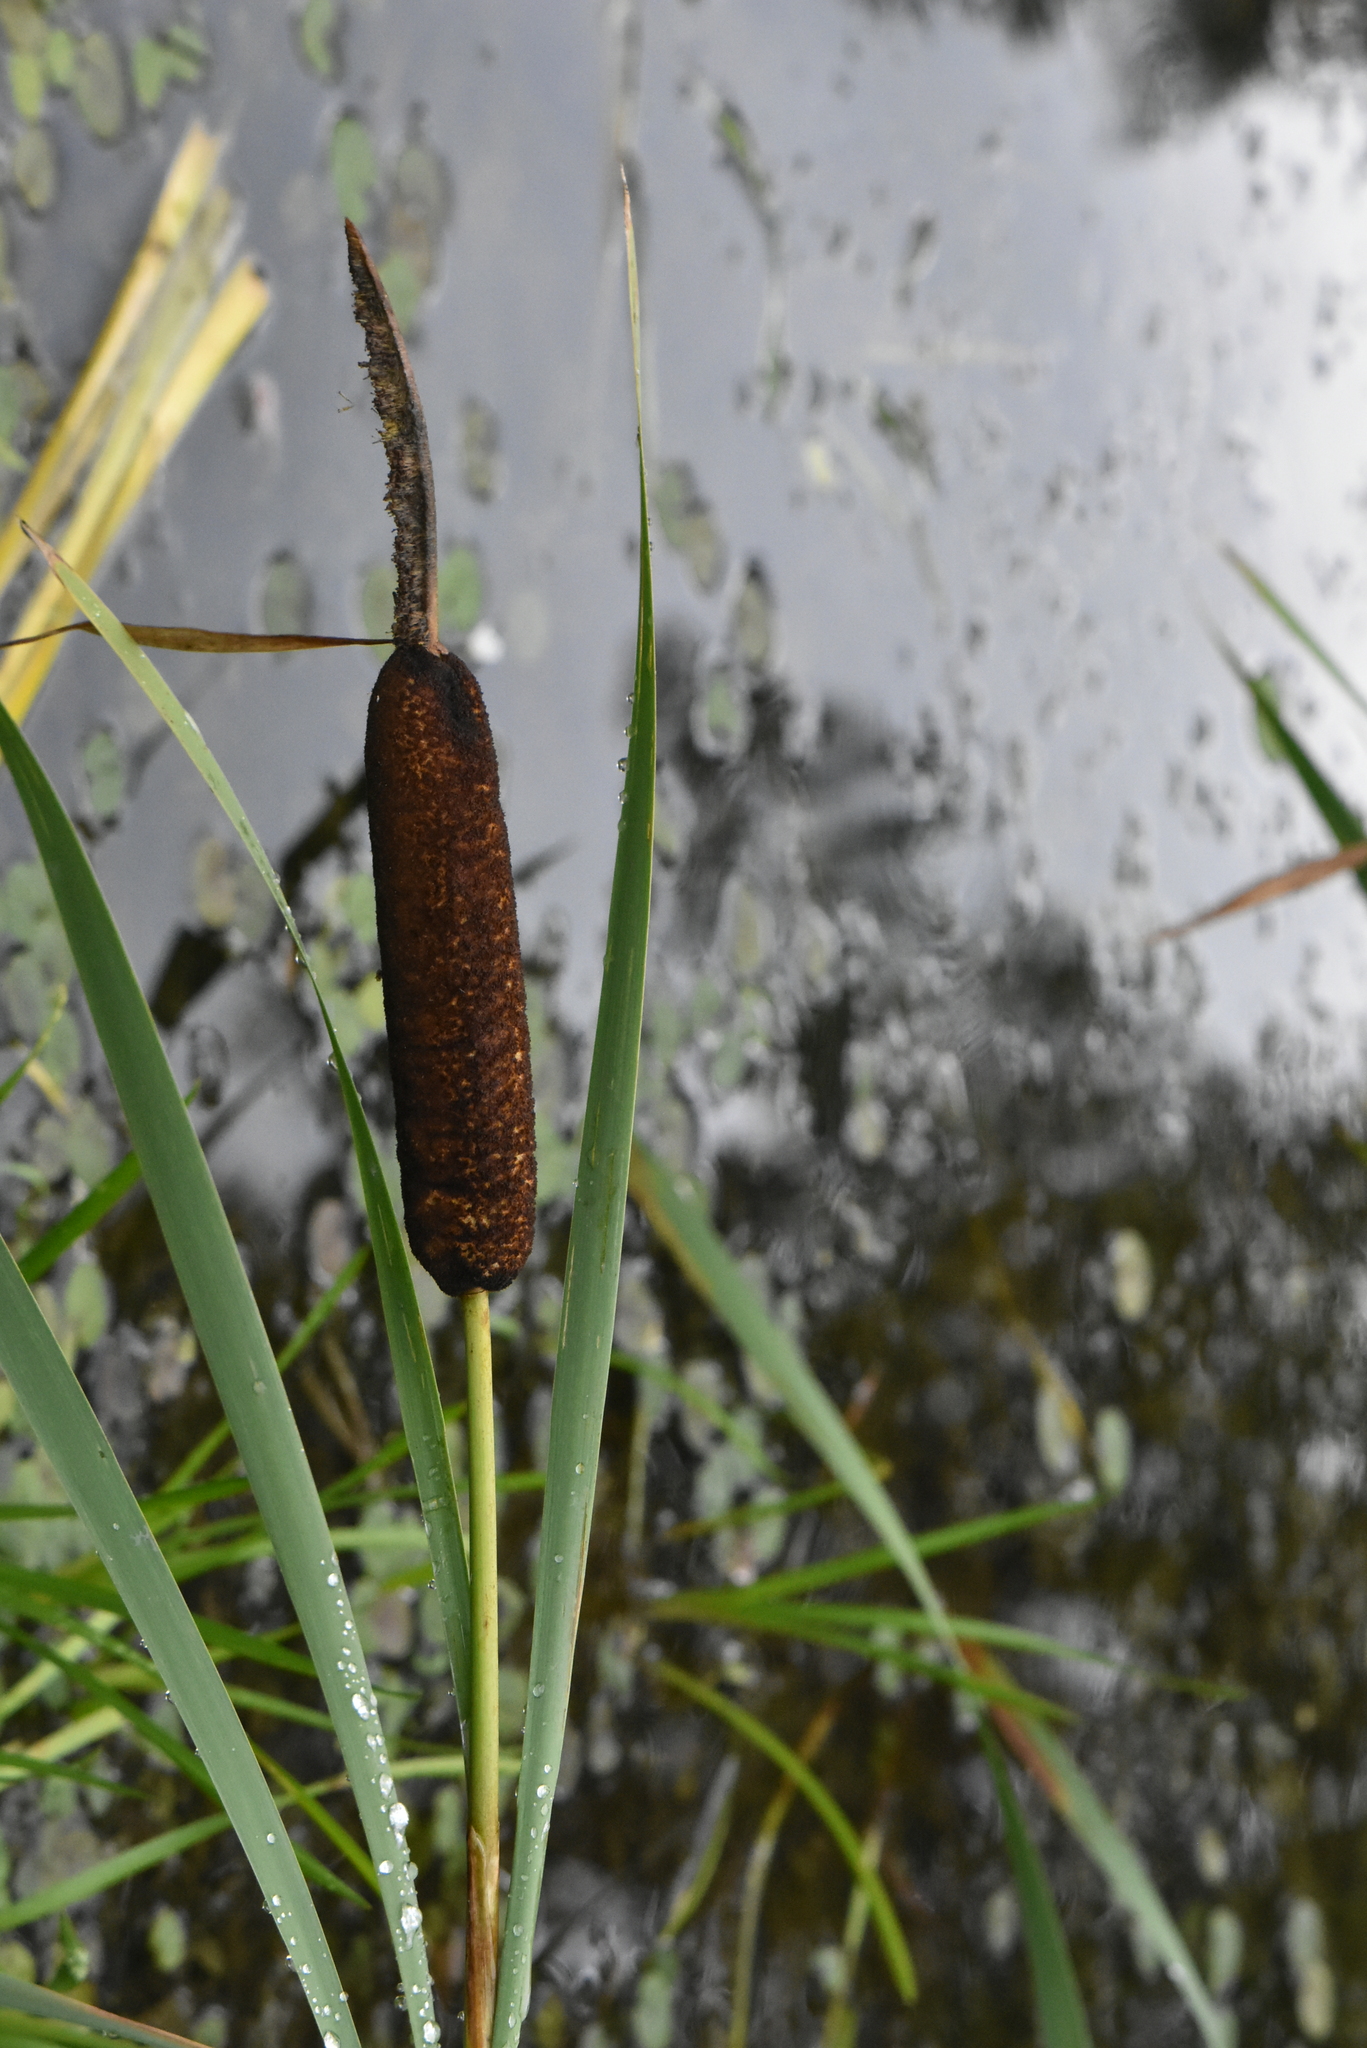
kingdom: Plantae
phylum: Tracheophyta
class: Liliopsida
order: Poales
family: Typhaceae
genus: Typha
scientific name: Typha latifolia
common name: Broadleaf cattail
